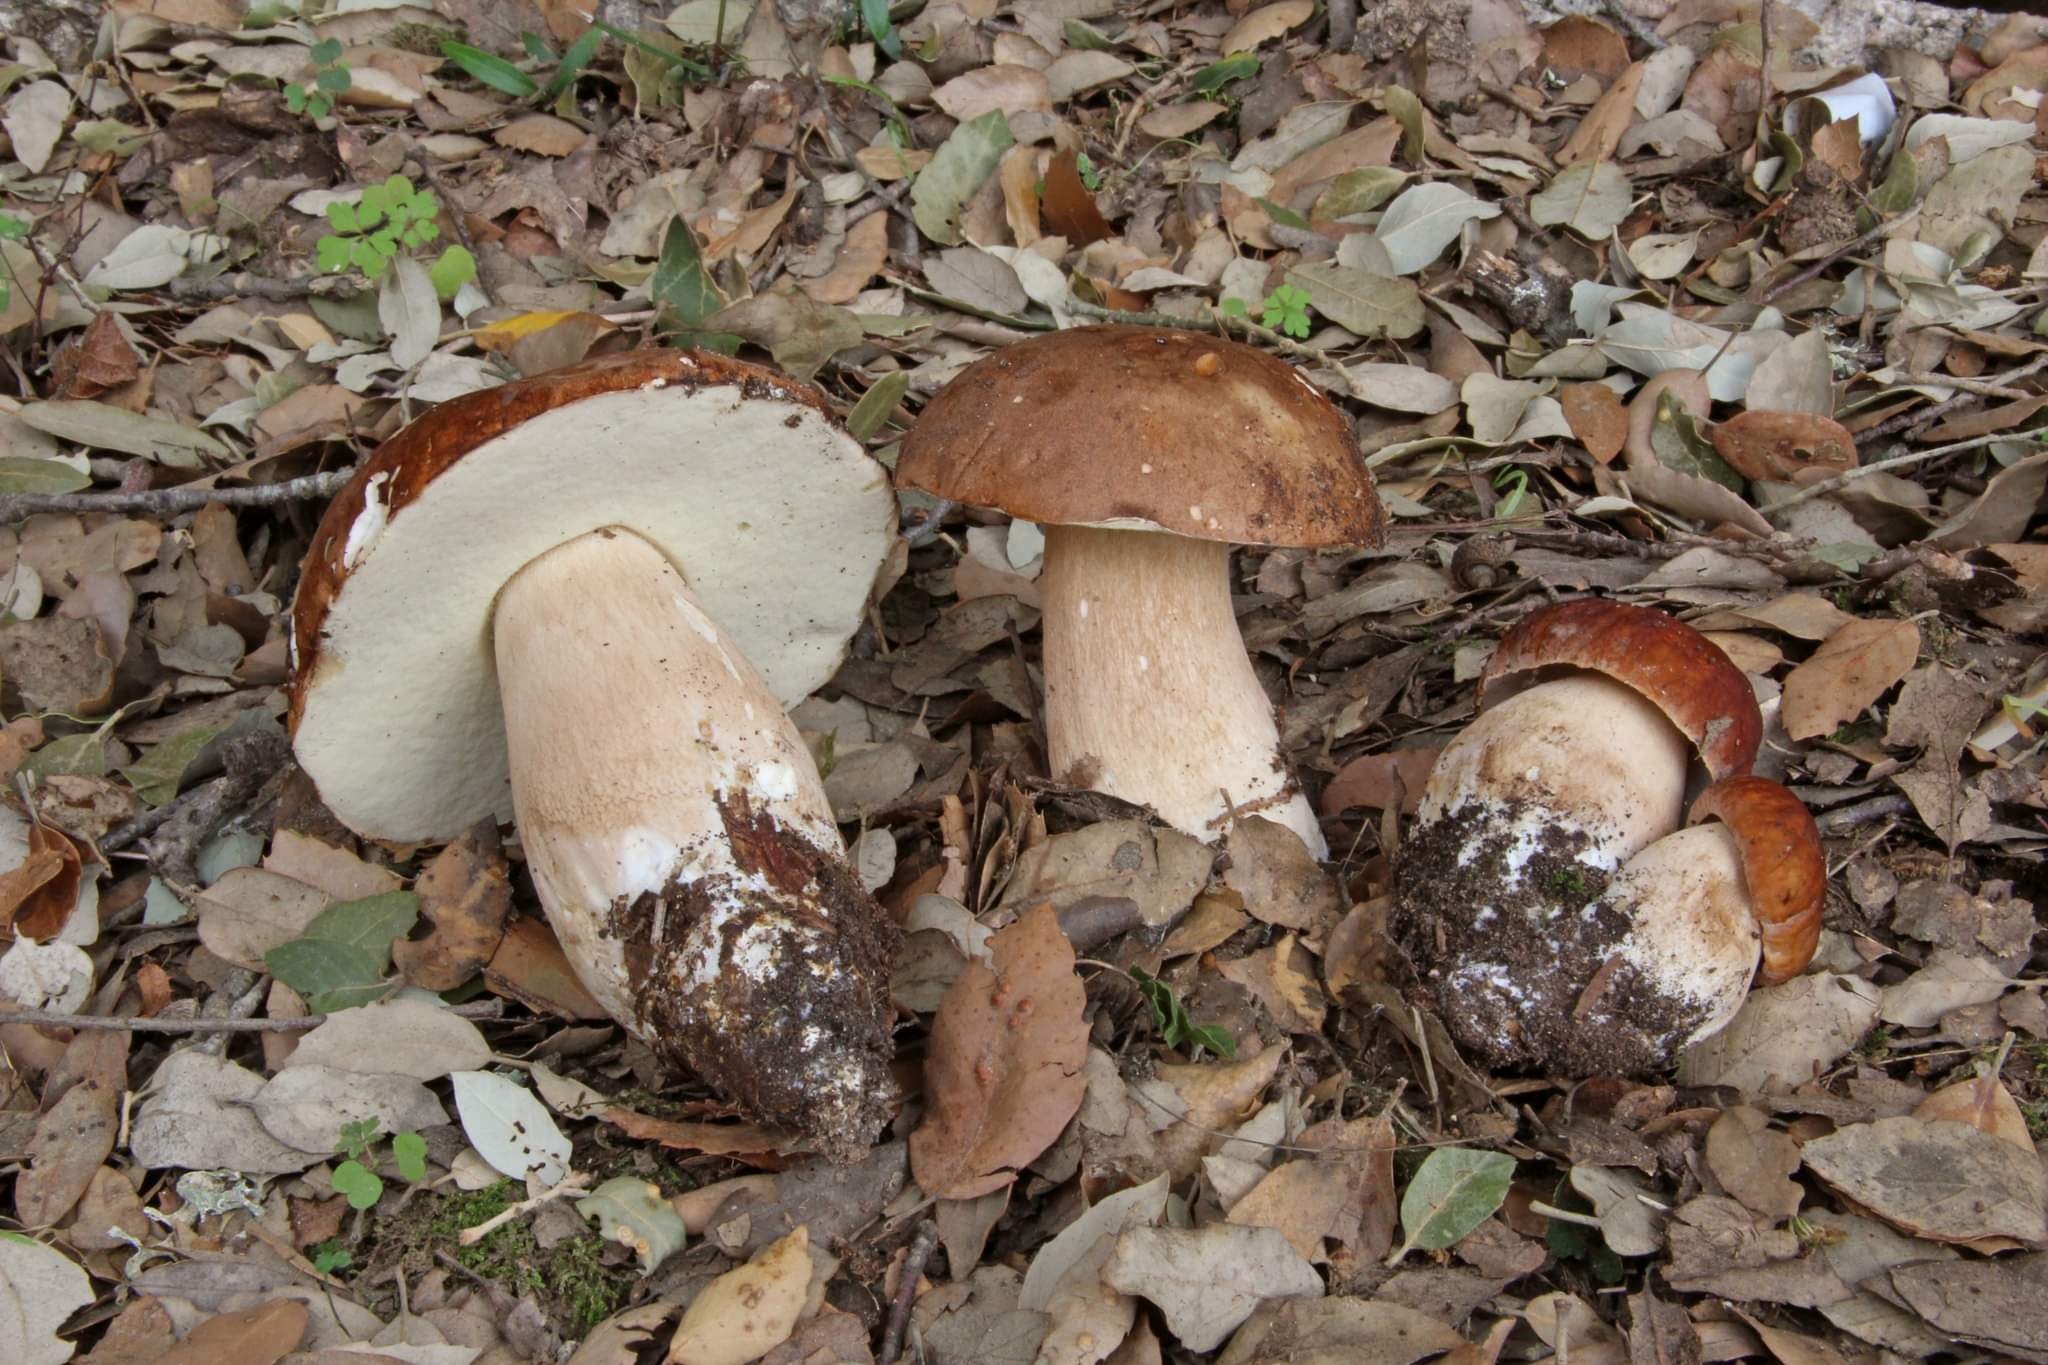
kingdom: Fungi
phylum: Basidiomycota
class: Agaricomycetes
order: Boletales
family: Boletaceae
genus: Boletus
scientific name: Boletus reticulatus
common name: Summer bolete
